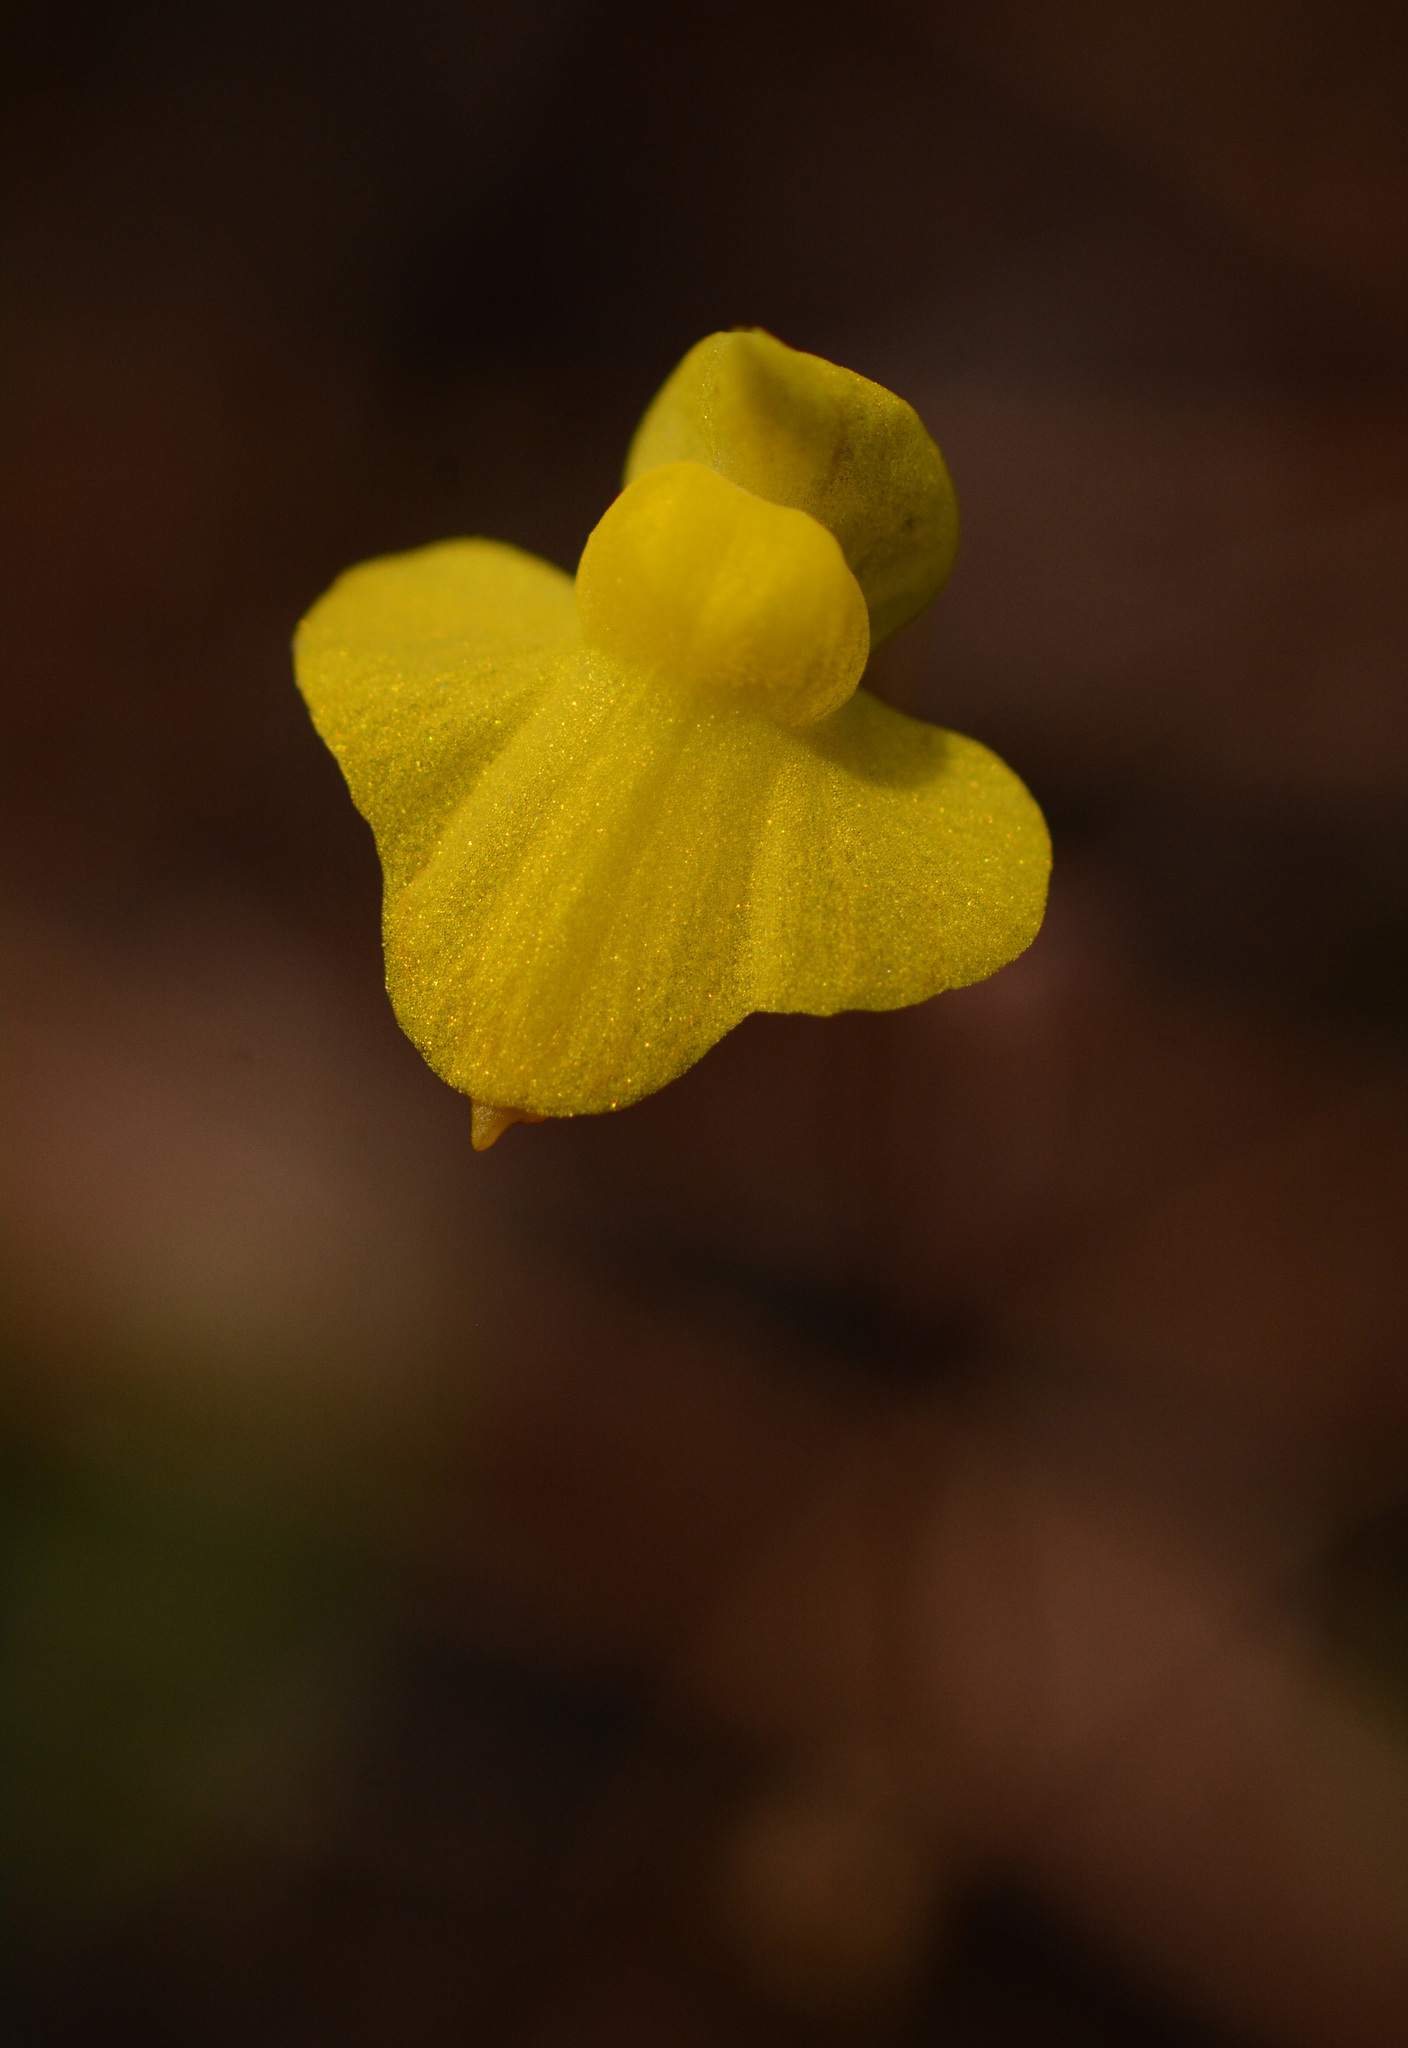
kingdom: Plantae
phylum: Tracheophyta
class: Magnoliopsida
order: Lamiales
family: Lentibulariaceae
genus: Utricularia
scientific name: Utricularia subulata
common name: Tiny bladderwort
